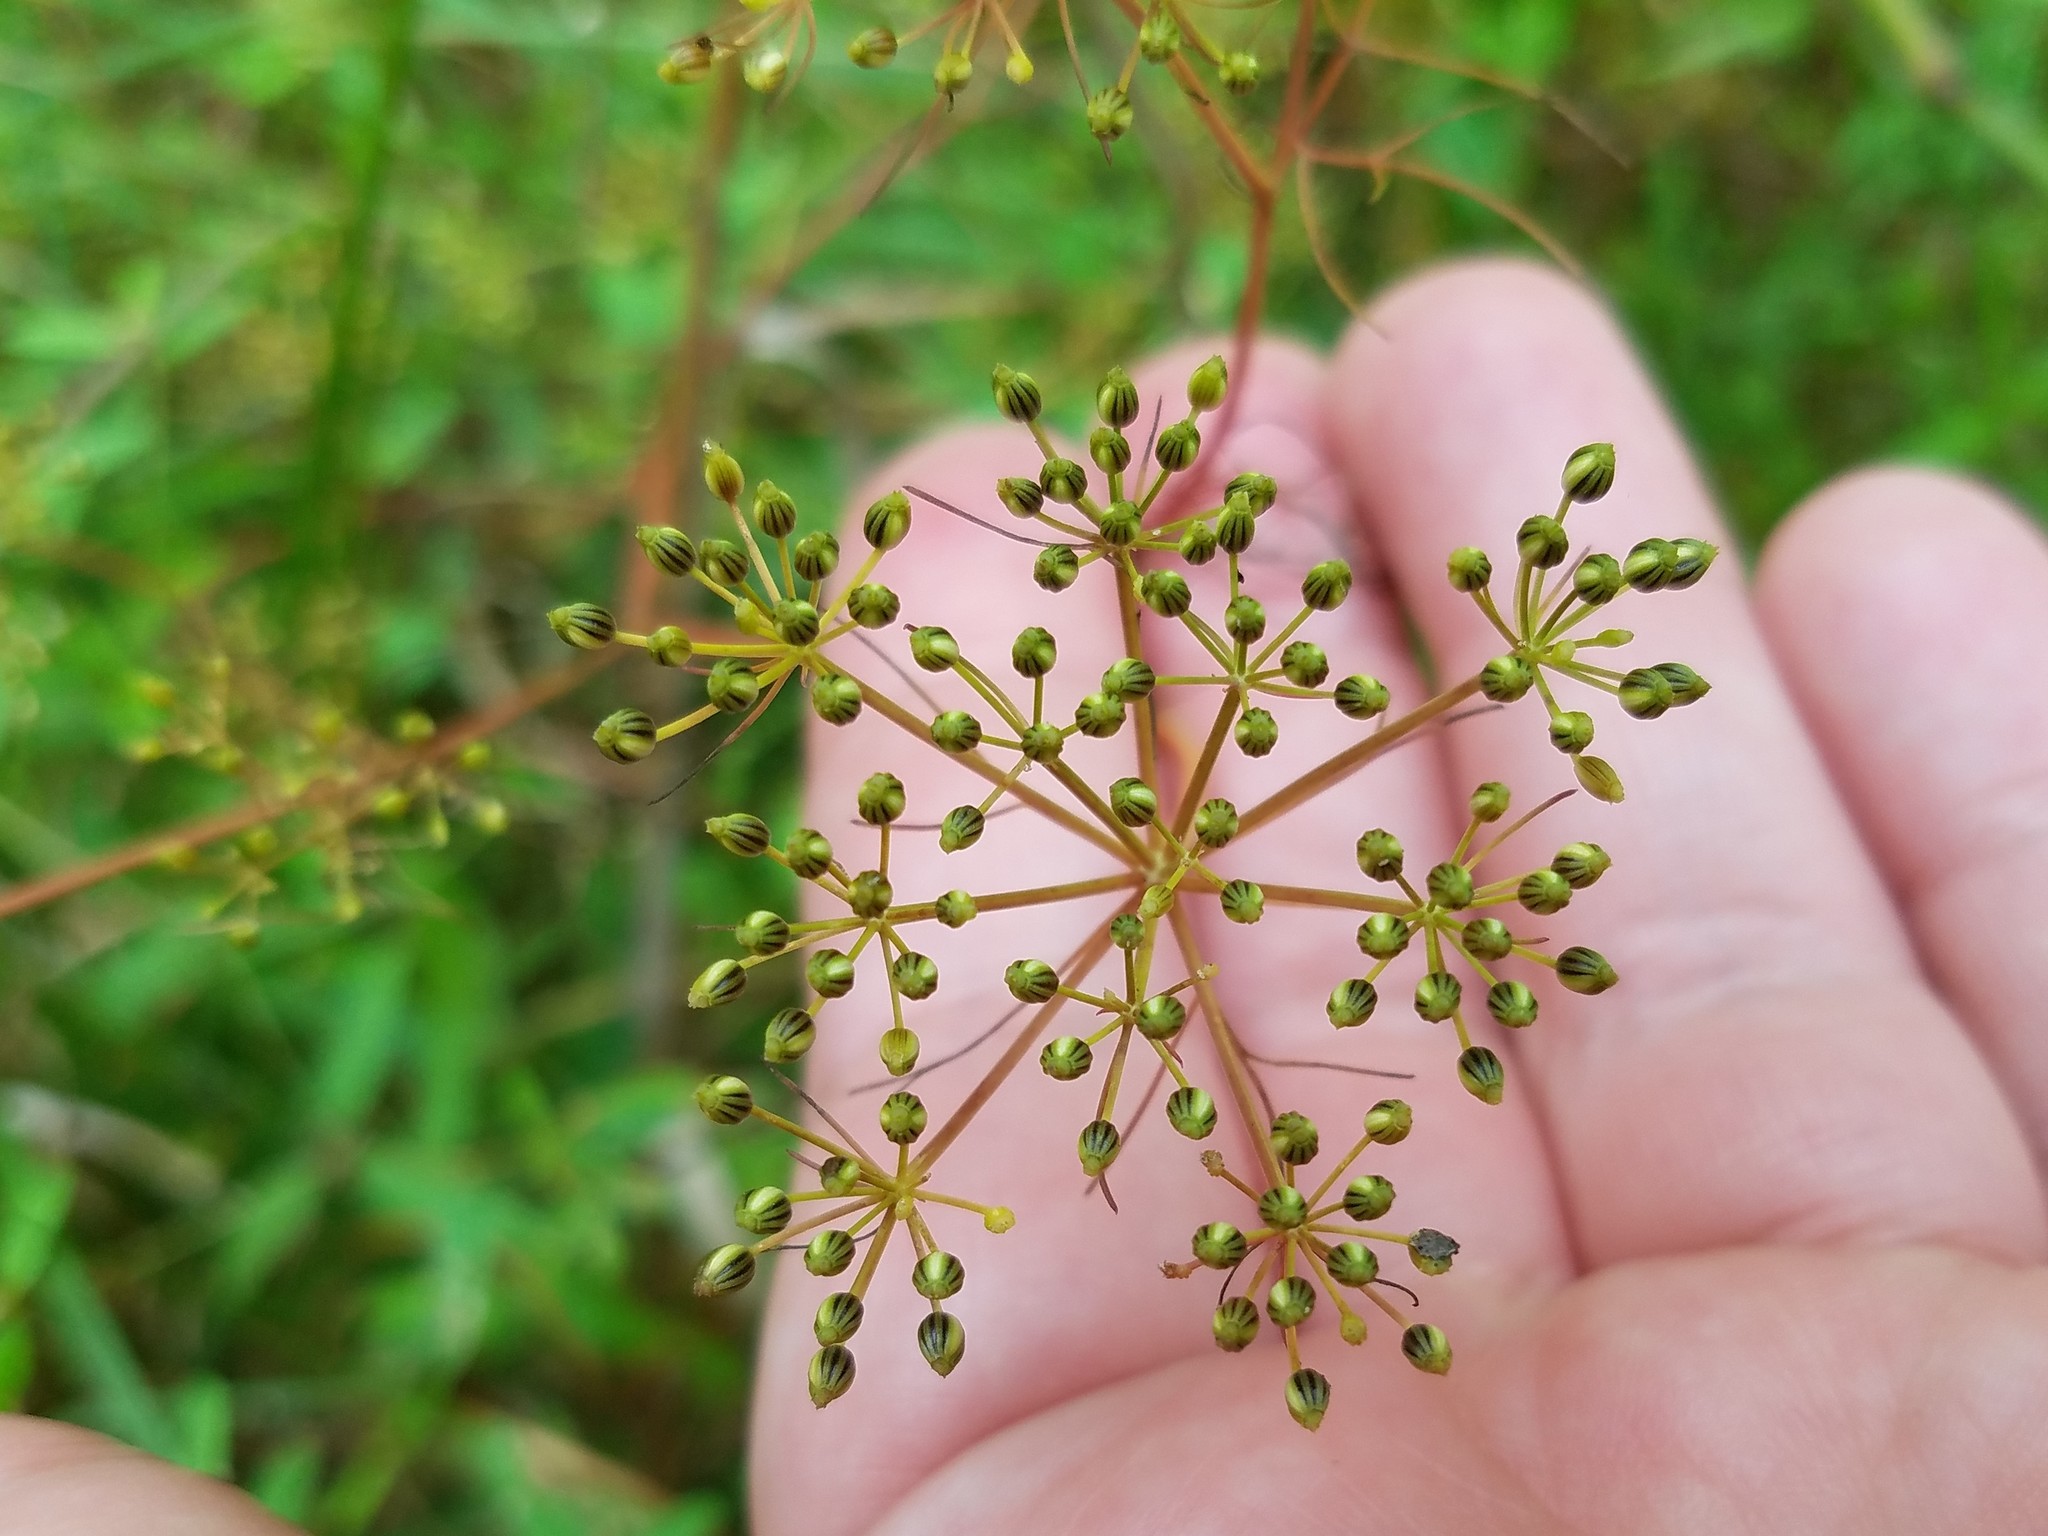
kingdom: Plantae
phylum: Tracheophyta
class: Magnoliopsida
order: Apiales
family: Apiaceae
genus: Ptilimnium
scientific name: Ptilimnium capillaceum
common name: Herbwilliam
